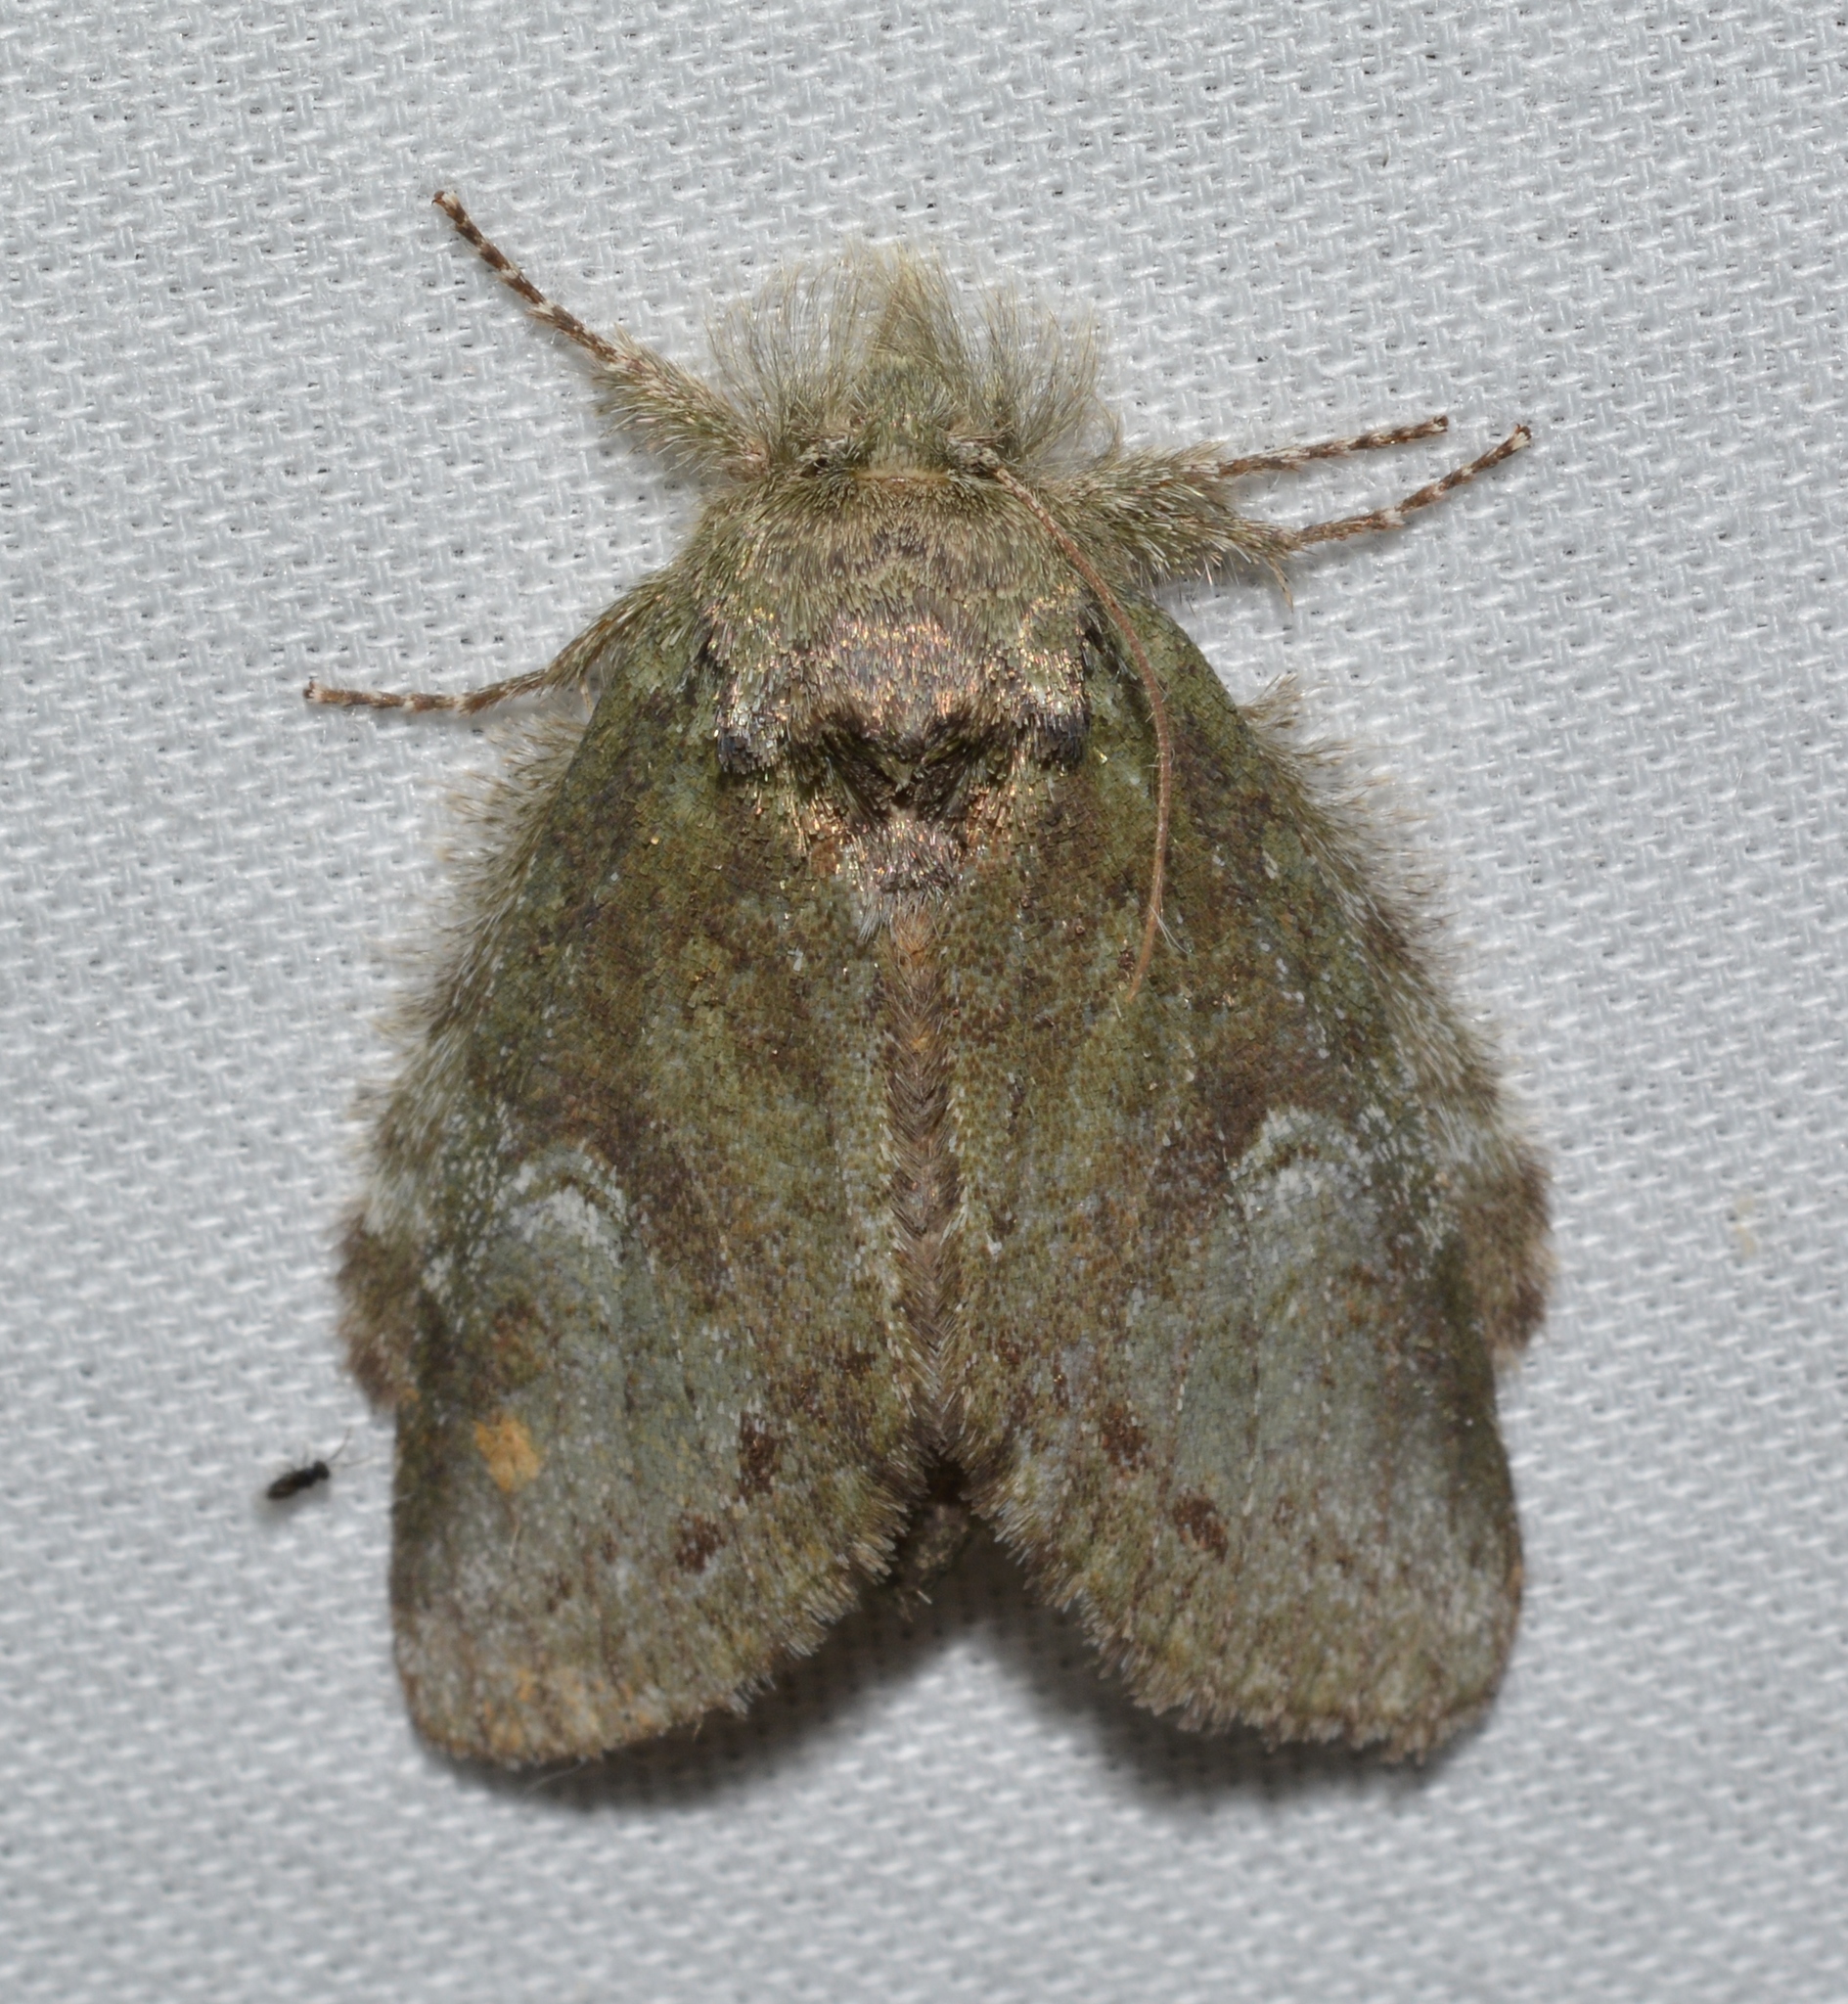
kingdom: Animalia
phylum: Arthropoda
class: Insecta
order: Lepidoptera
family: Notodontidae
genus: Disphragis
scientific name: Disphragis Cecrita guttivitta
